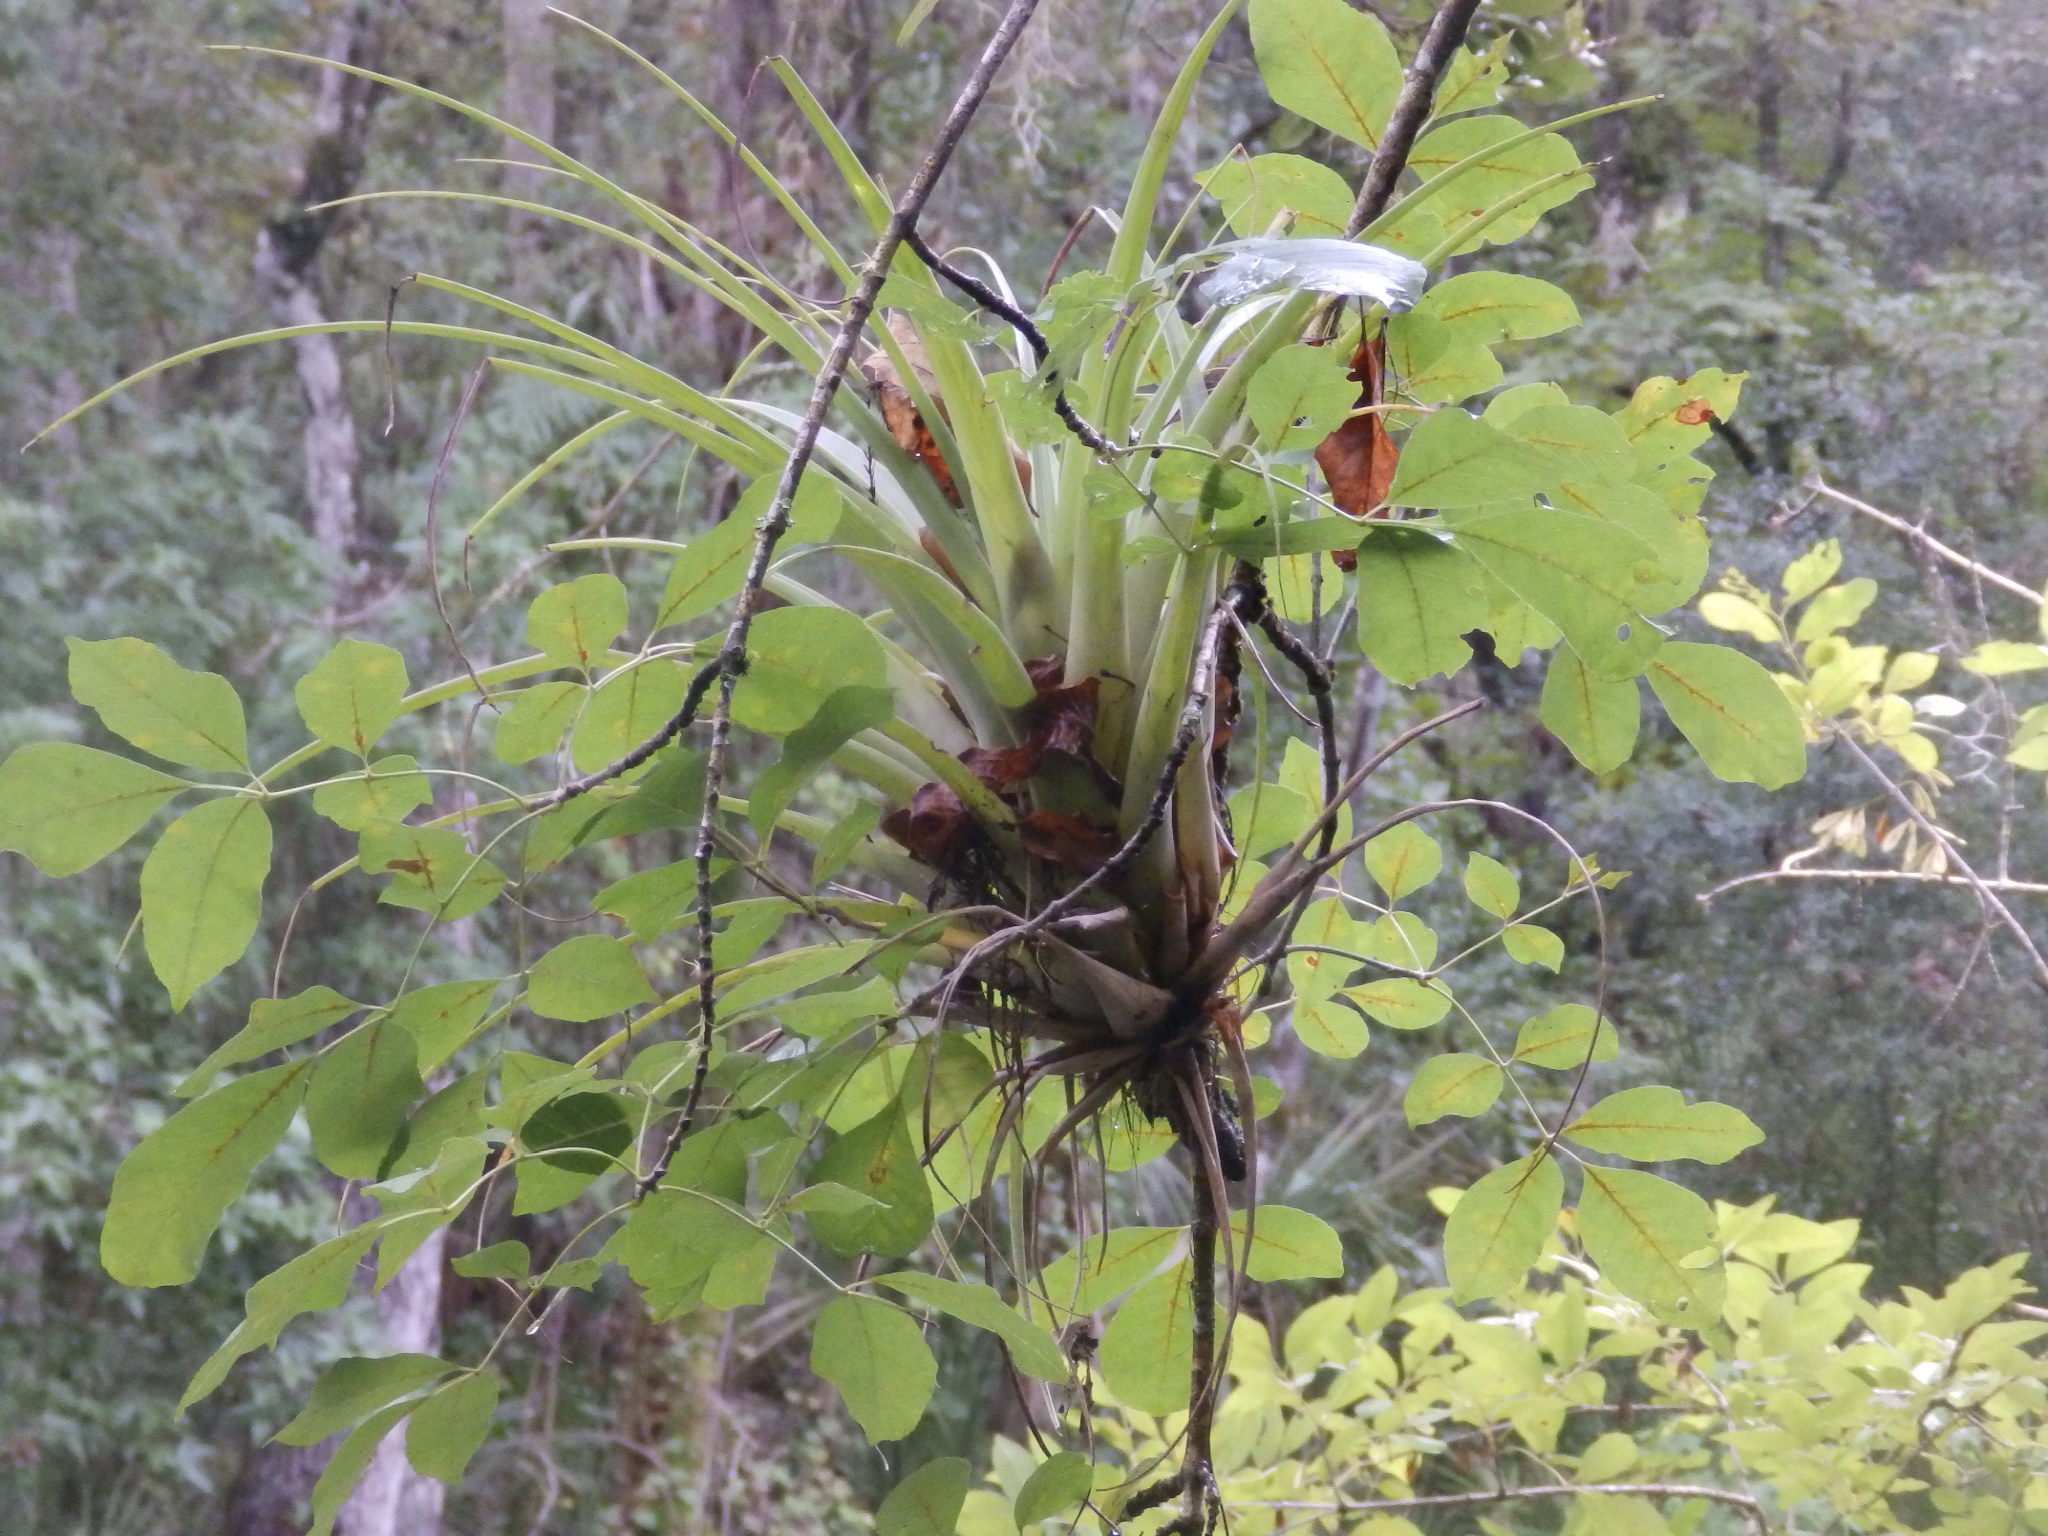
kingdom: Plantae
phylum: Tracheophyta
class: Liliopsida
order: Poales
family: Bromeliaceae
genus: Tillandsia
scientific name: Tillandsia utriculata
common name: Wild pine
